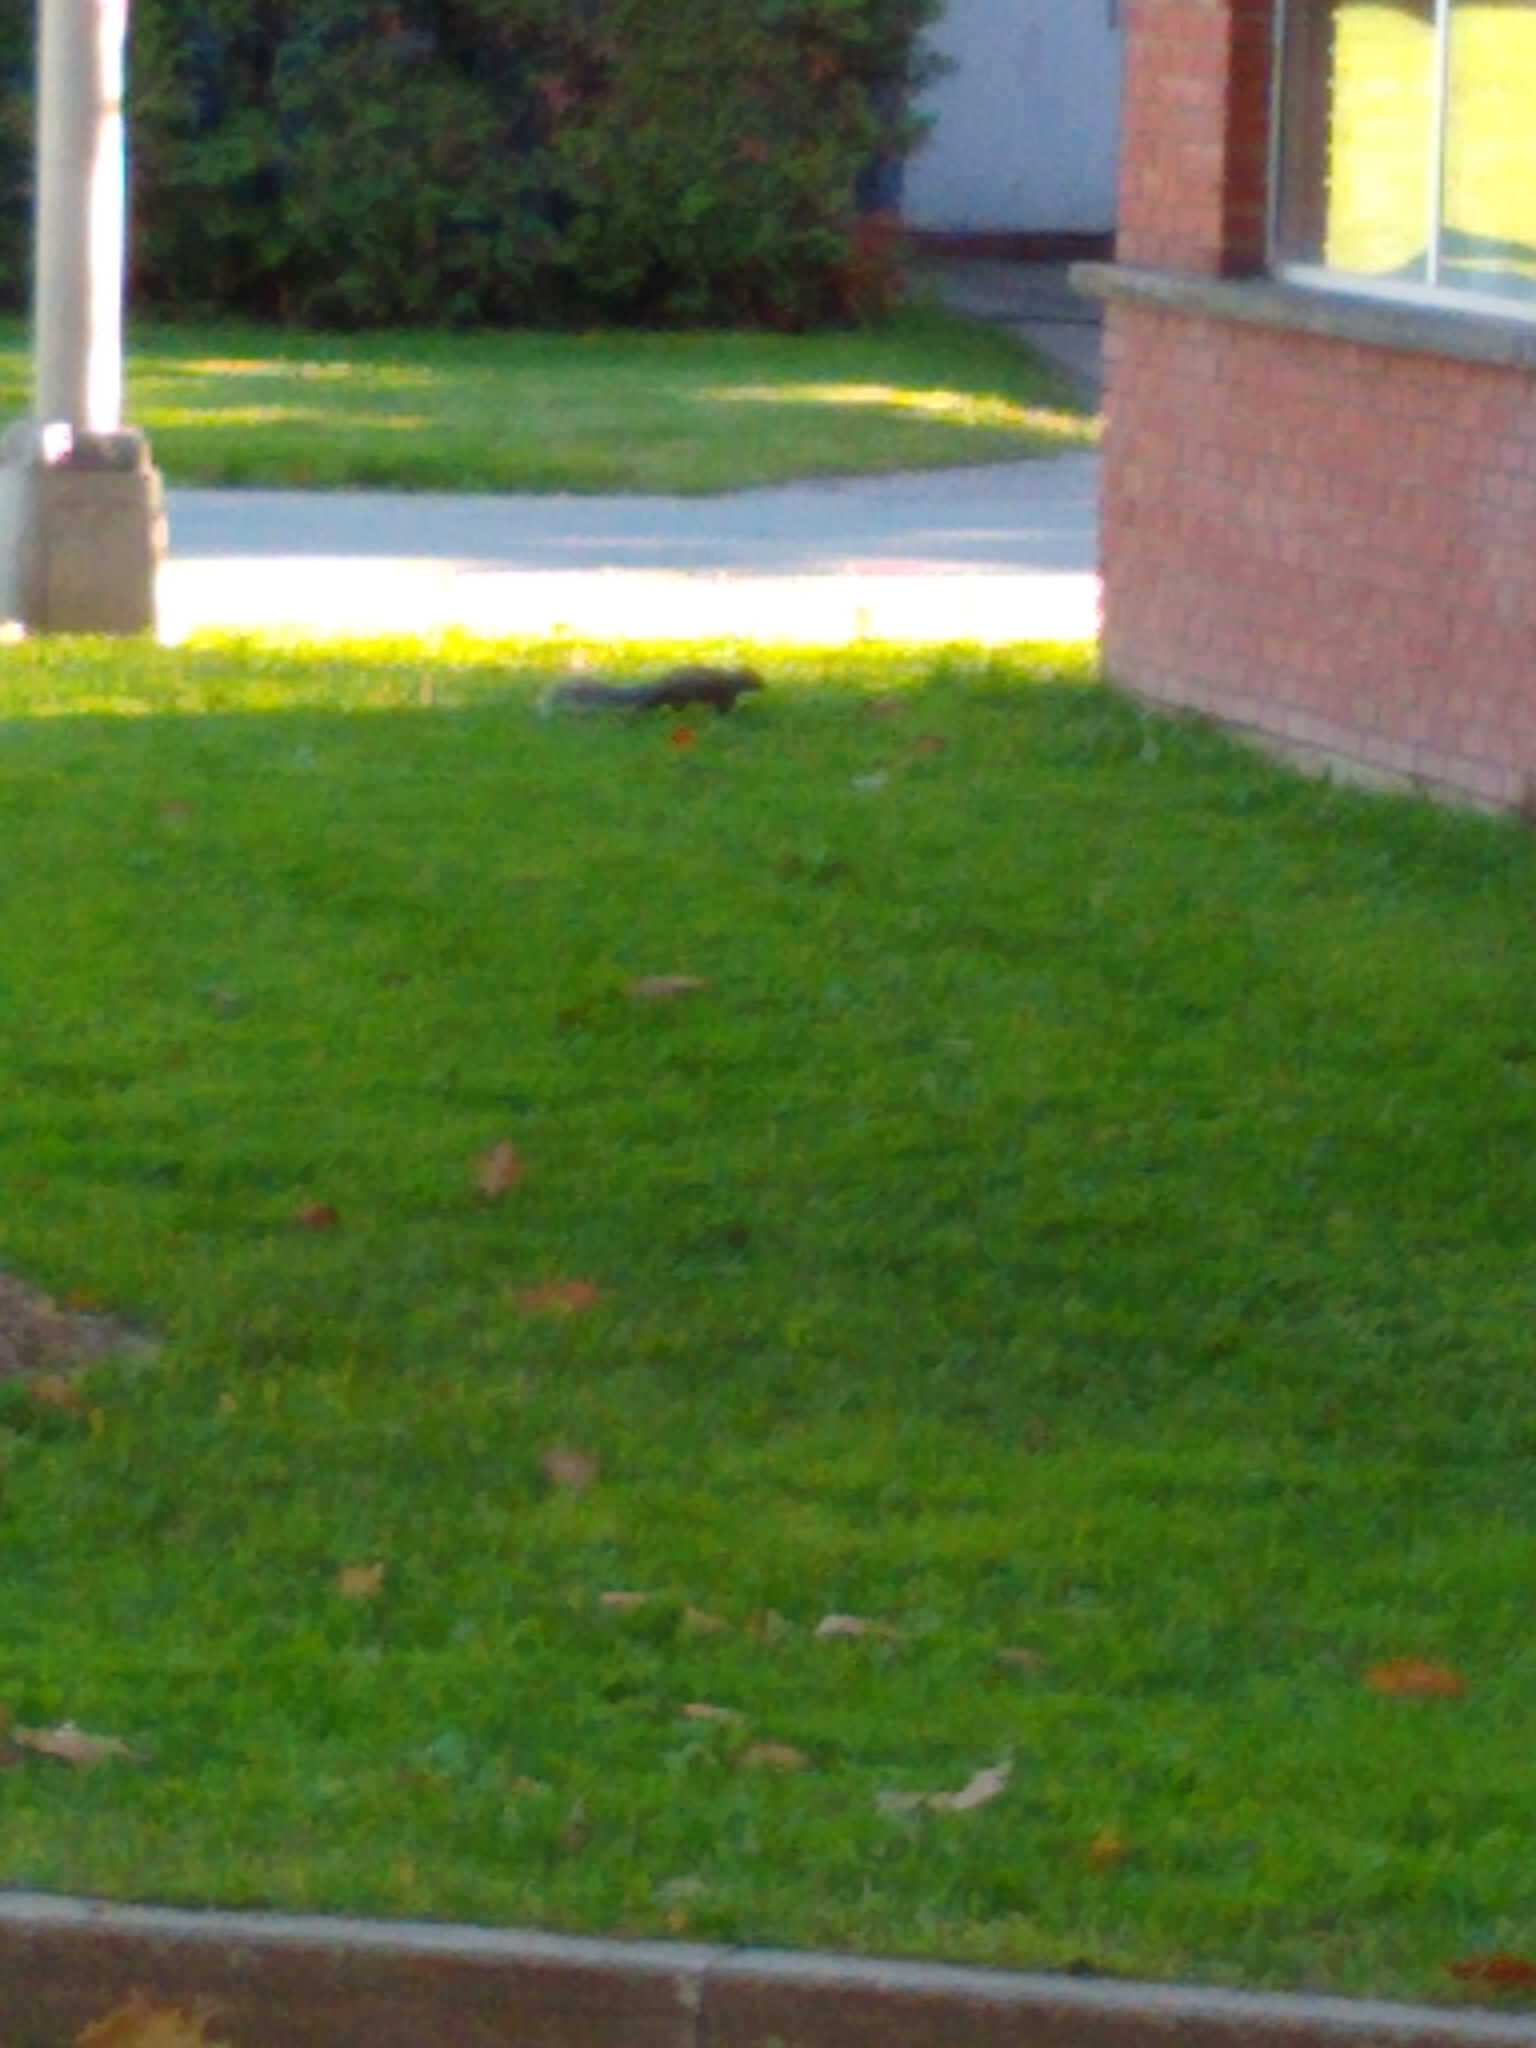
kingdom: Animalia
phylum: Chordata
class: Mammalia
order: Rodentia
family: Sciuridae
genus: Sciurus
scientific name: Sciurus carolinensis
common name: Eastern gray squirrel
